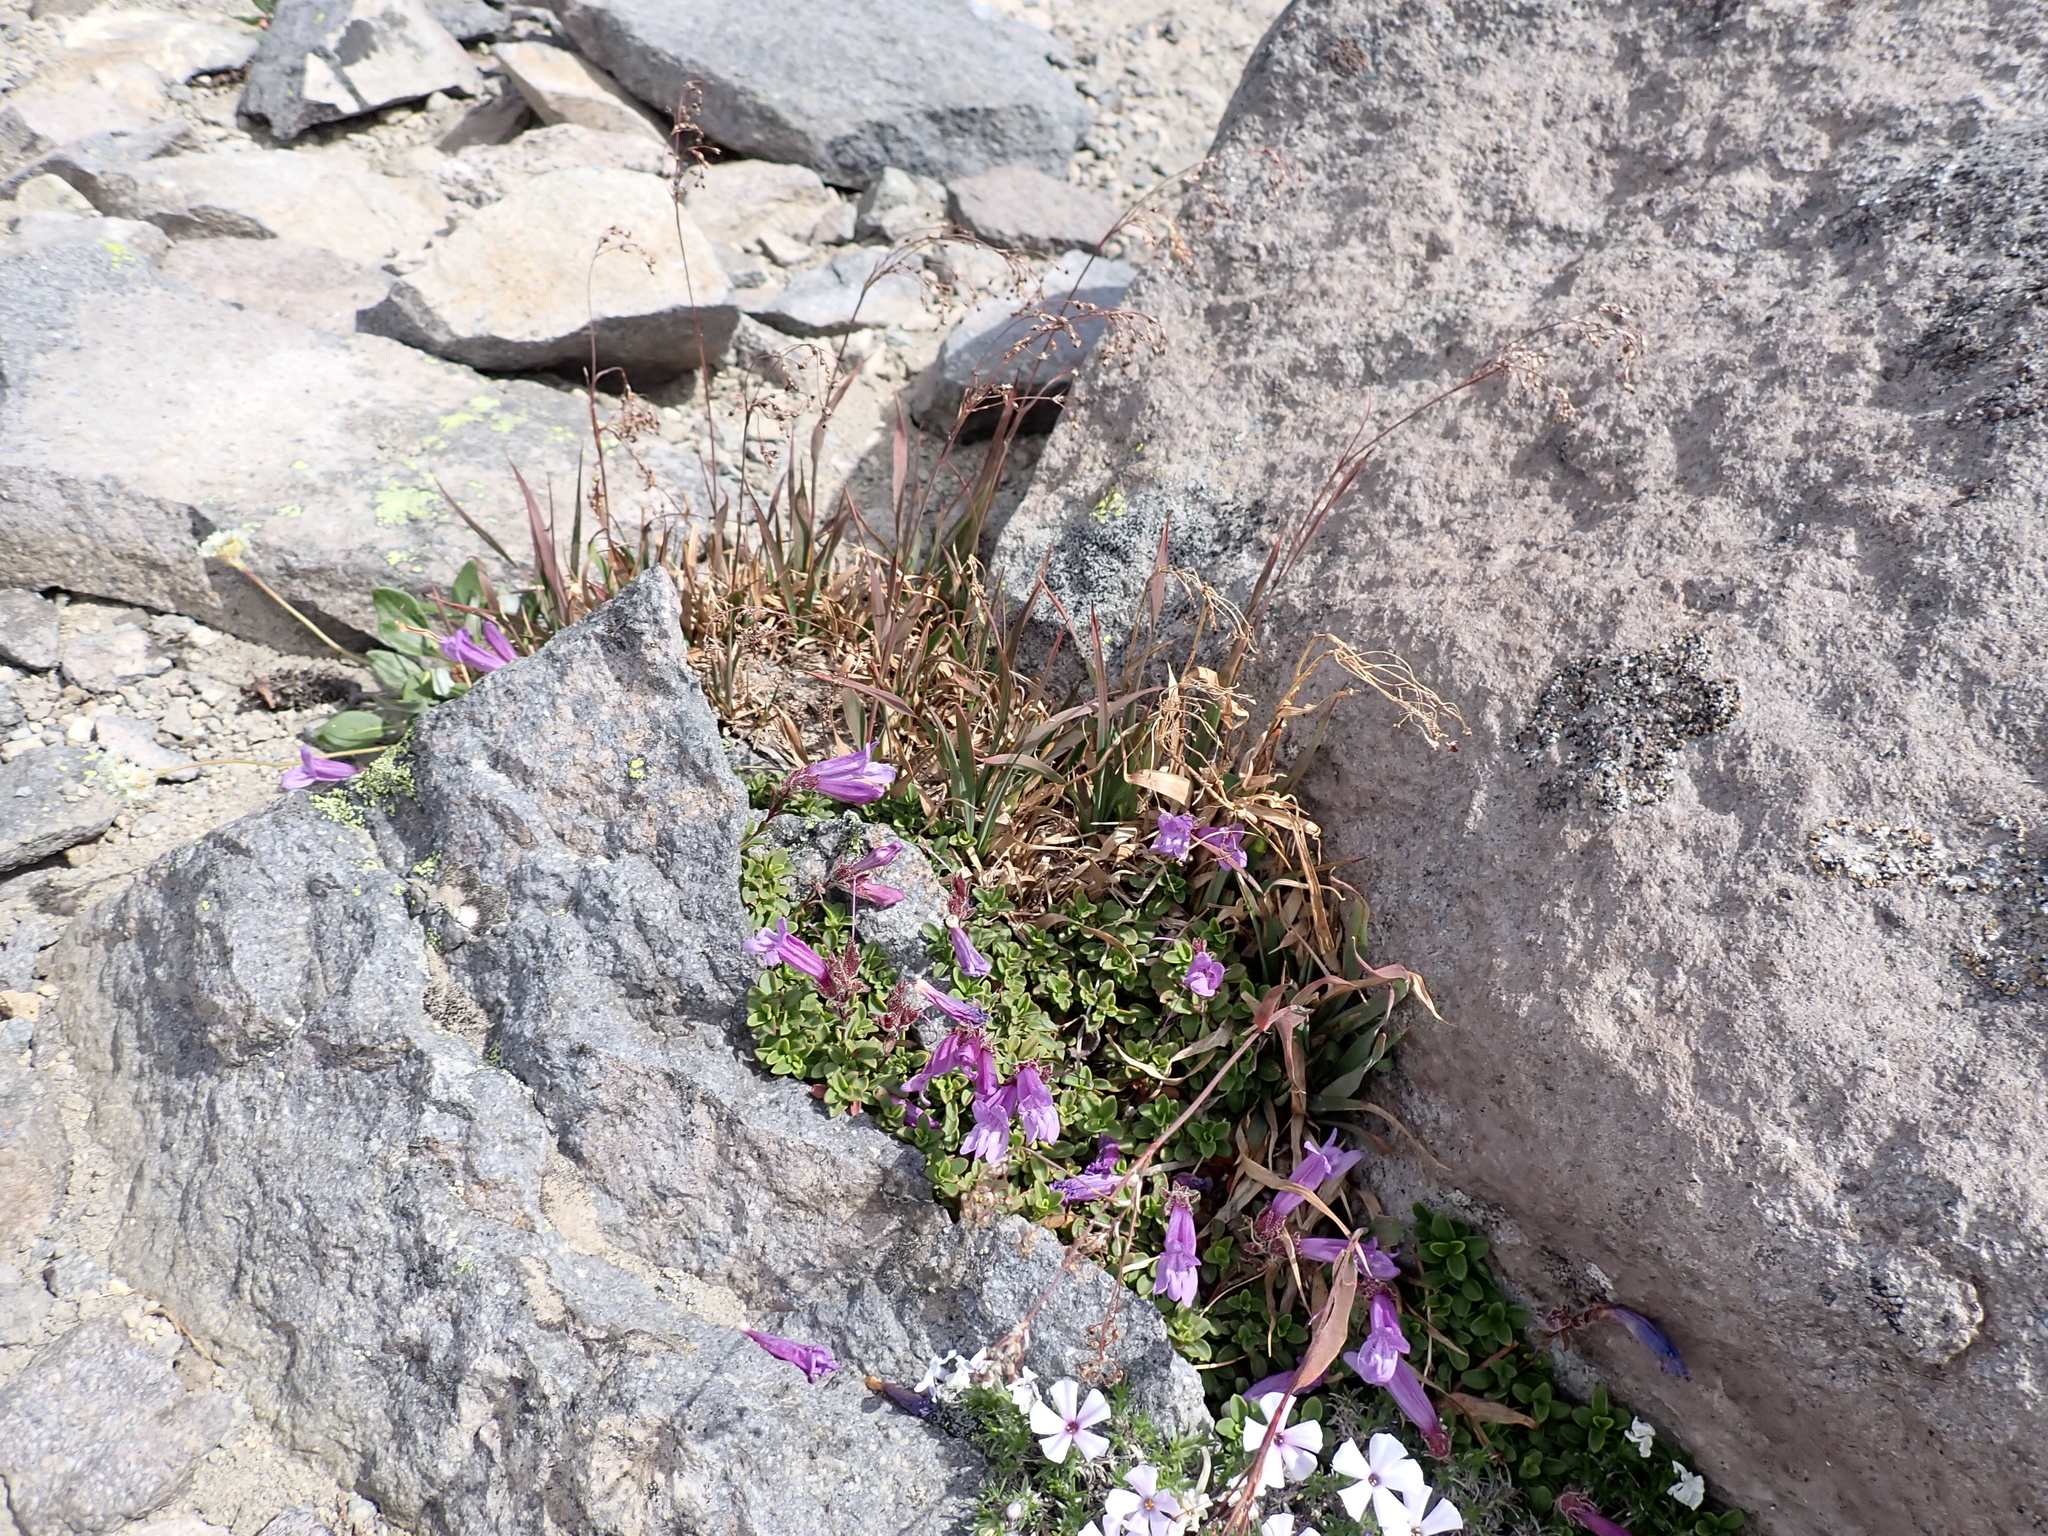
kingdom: Plantae
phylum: Tracheophyta
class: Magnoliopsida
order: Lamiales
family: Plantaginaceae
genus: Penstemon
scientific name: Penstemon davidsonii
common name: Davidson's penstemon
